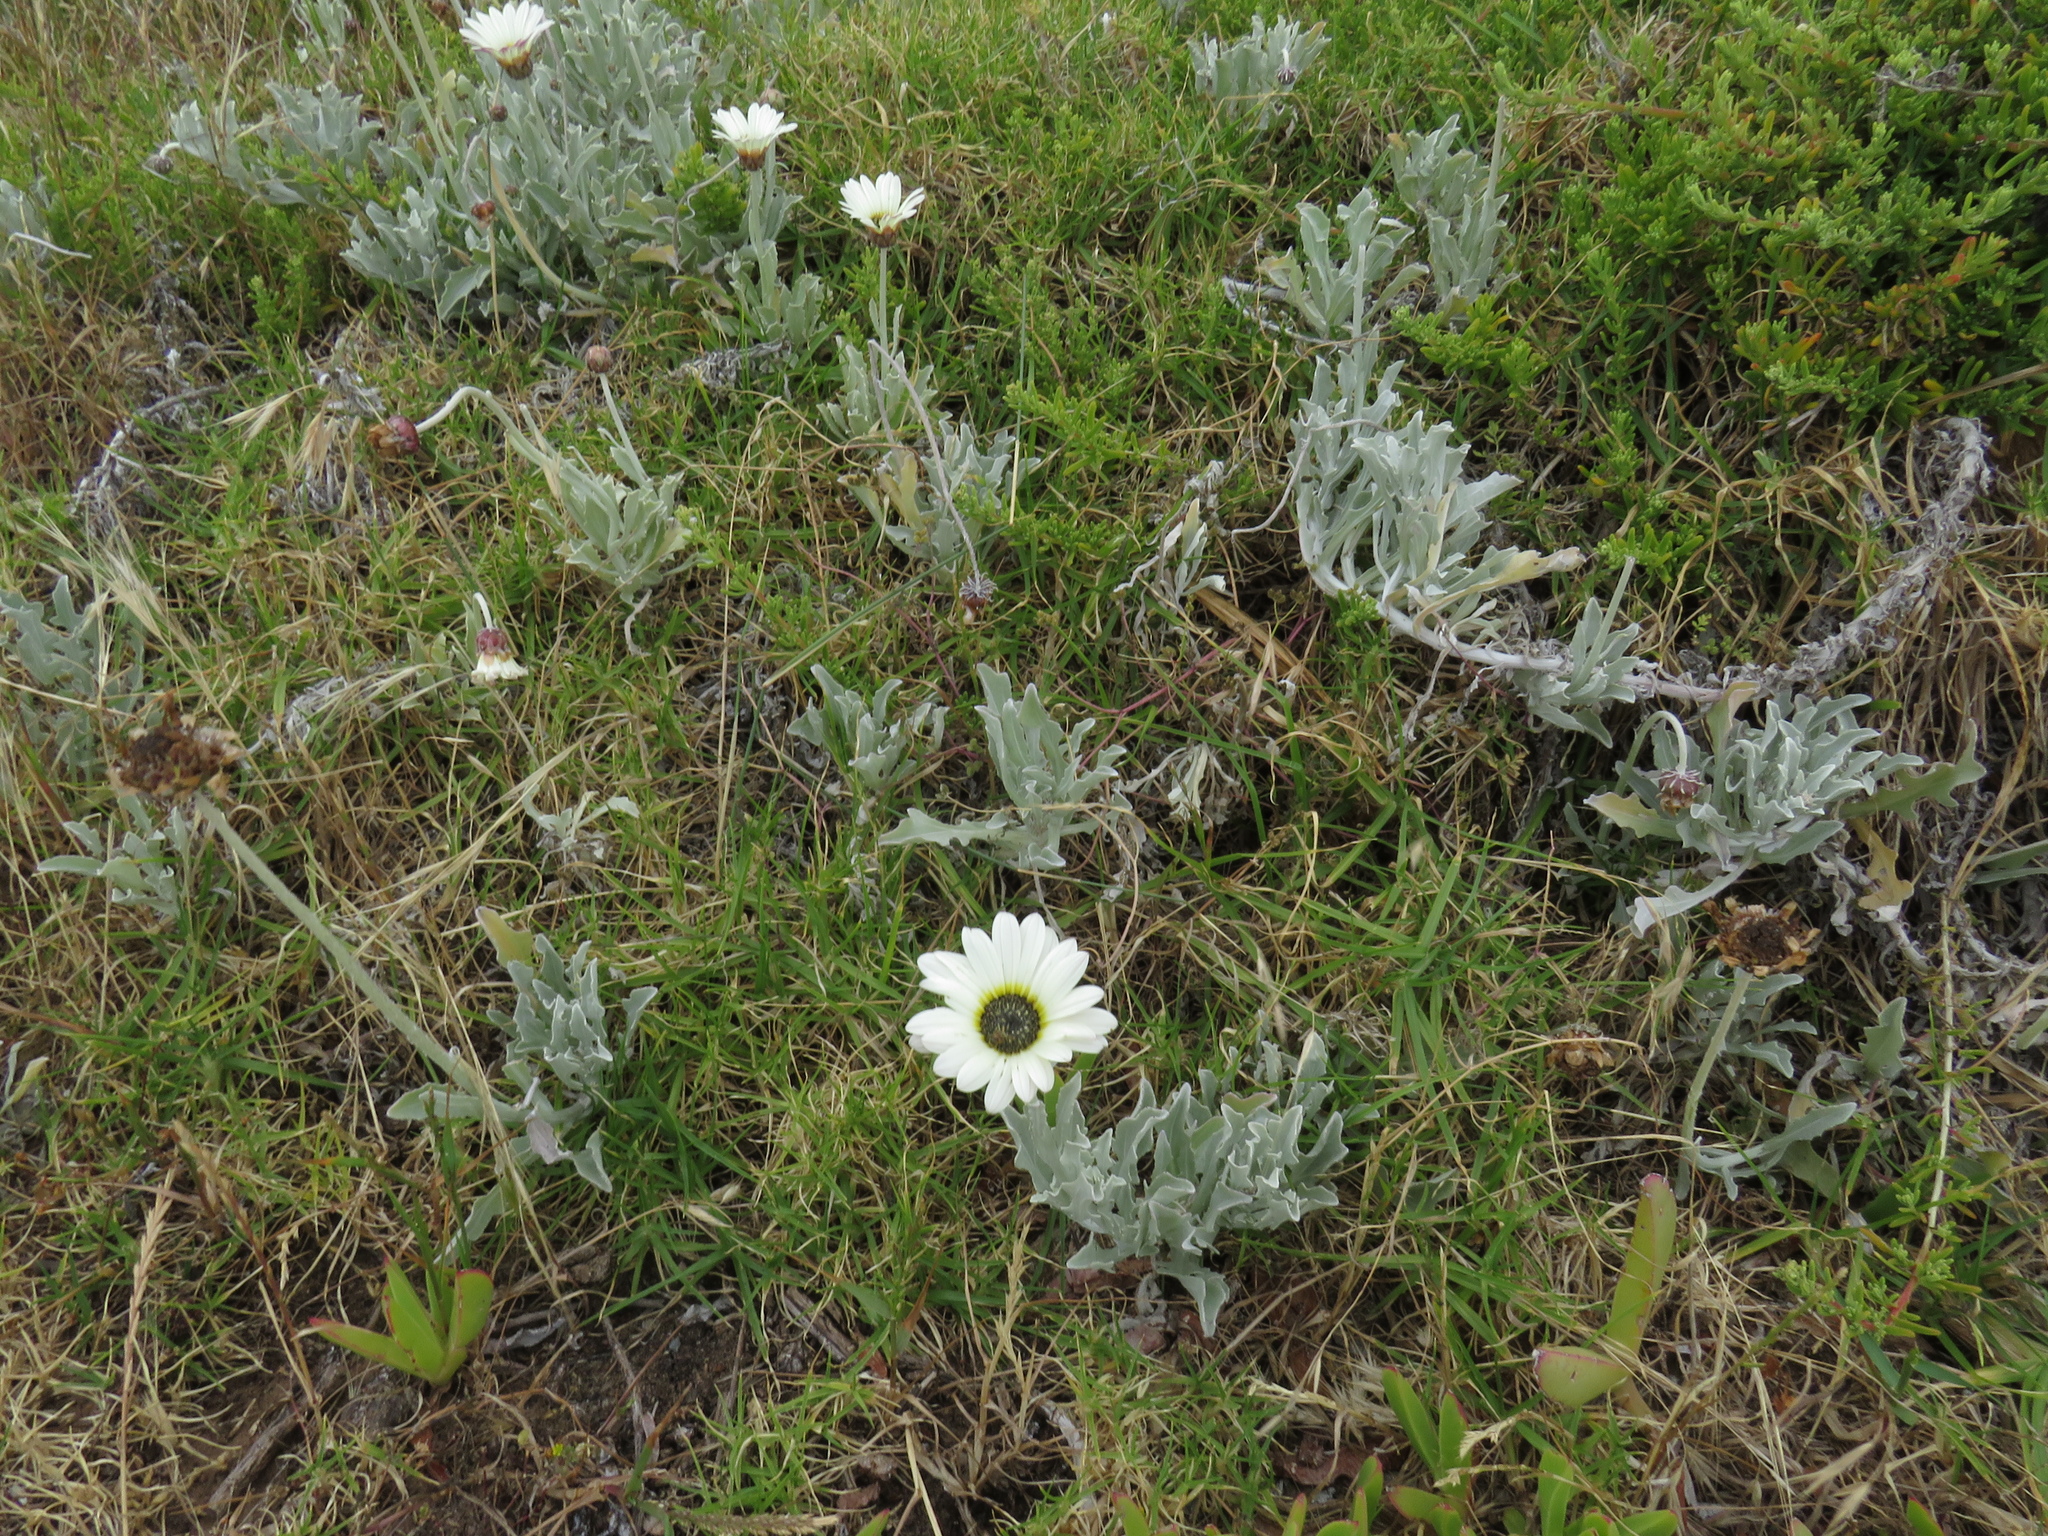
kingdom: Plantae
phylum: Tracheophyta
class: Magnoliopsida
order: Asterales
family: Asteraceae
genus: Arctotis
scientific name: Arctotis stoechadifolia
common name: African daisy
